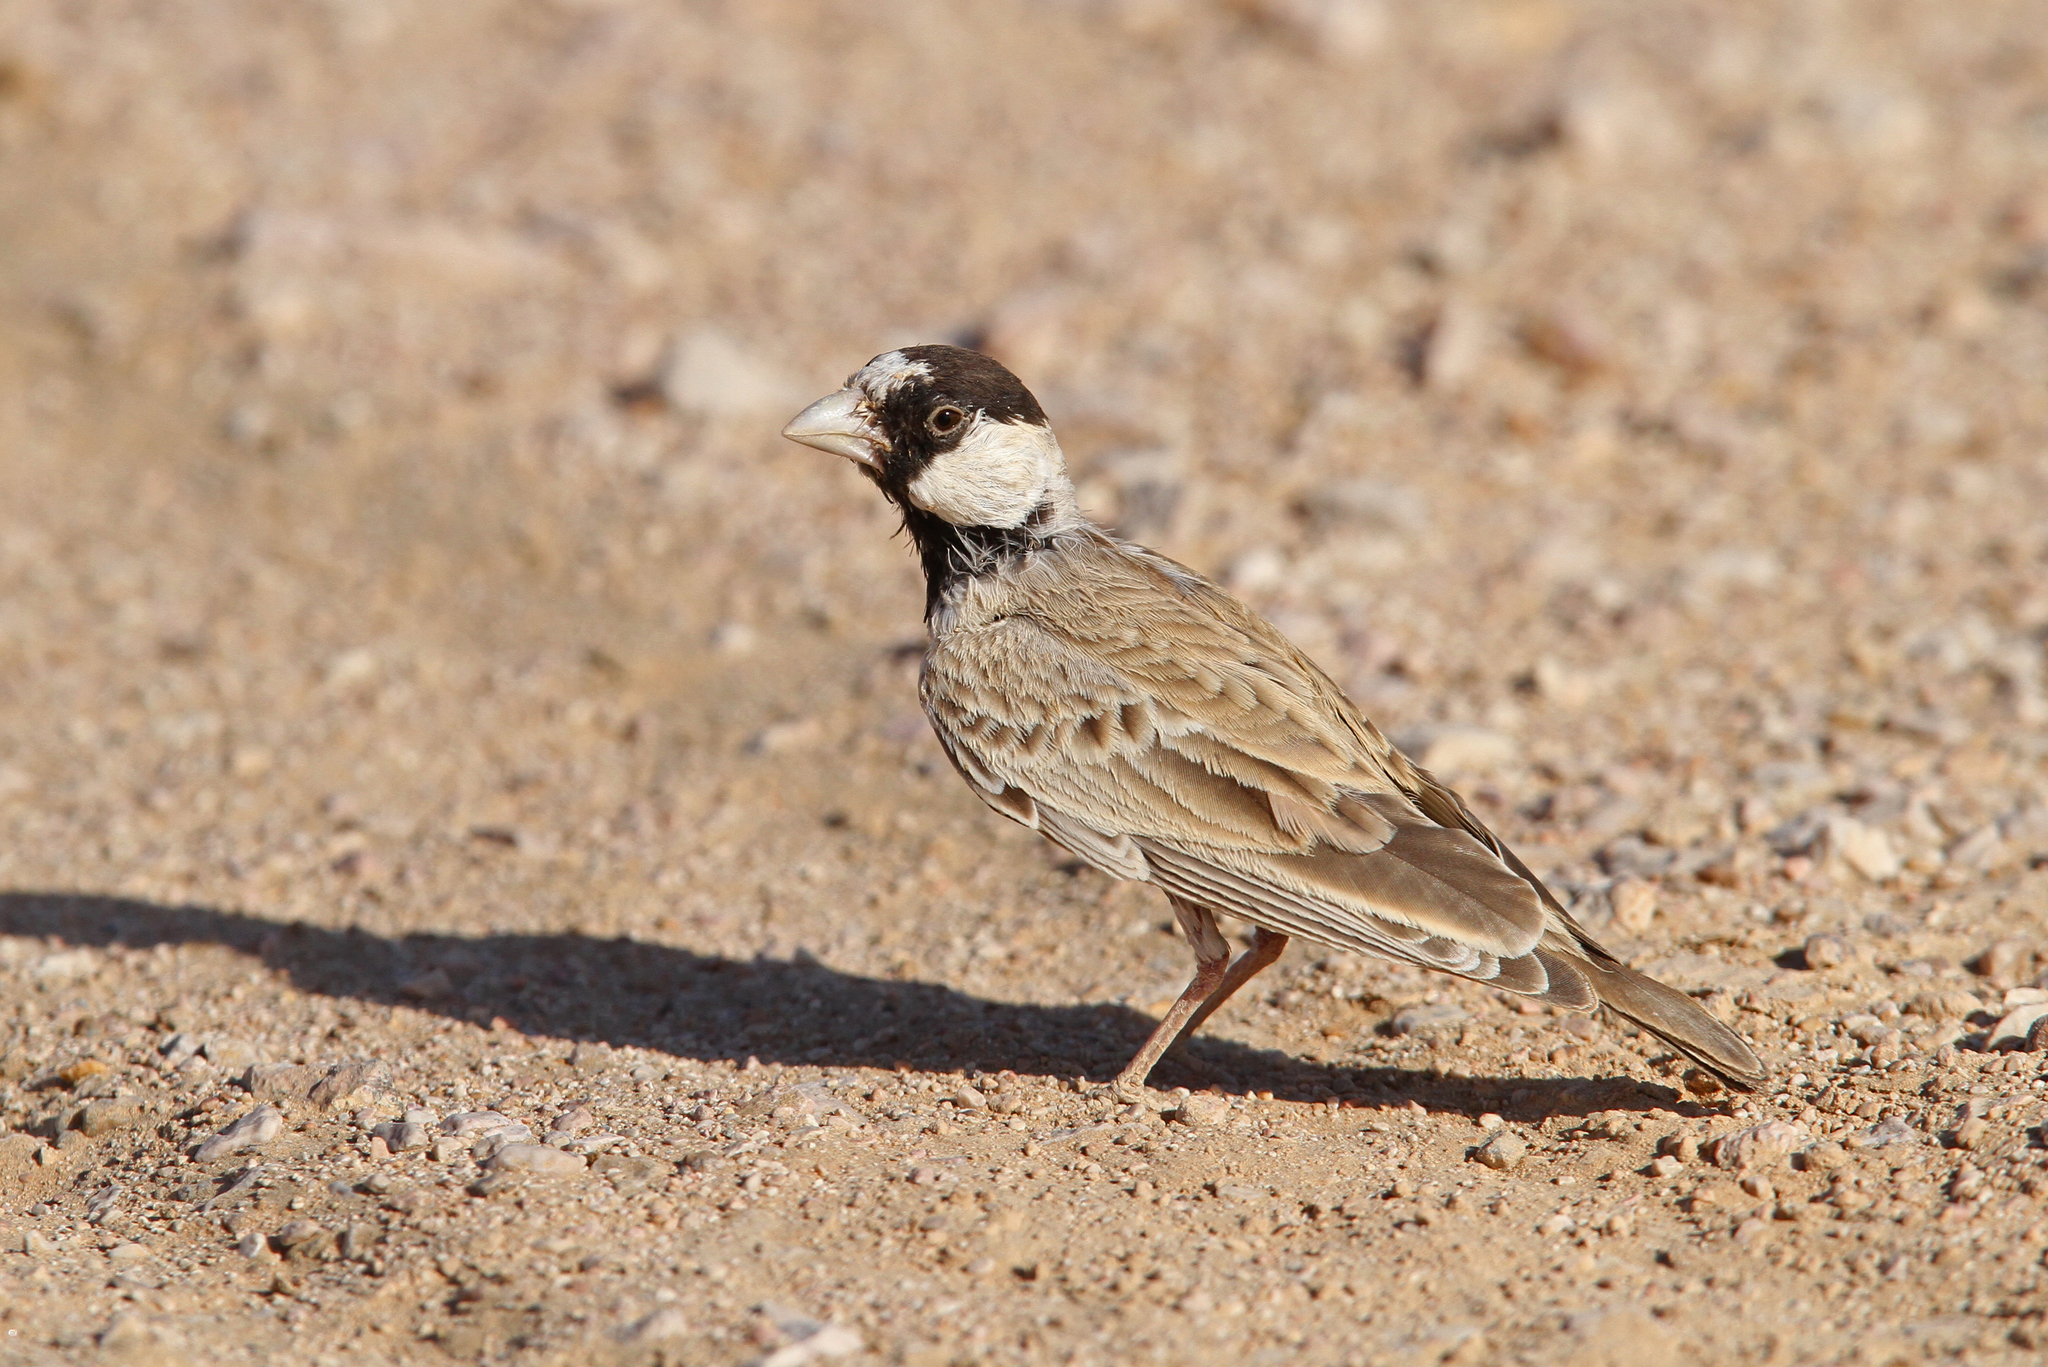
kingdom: Animalia
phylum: Chordata
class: Aves
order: Passeriformes
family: Alaudidae
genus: Eremopterix
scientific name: Eremopterix nigriceps
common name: Black-crowned sparrow-lark
